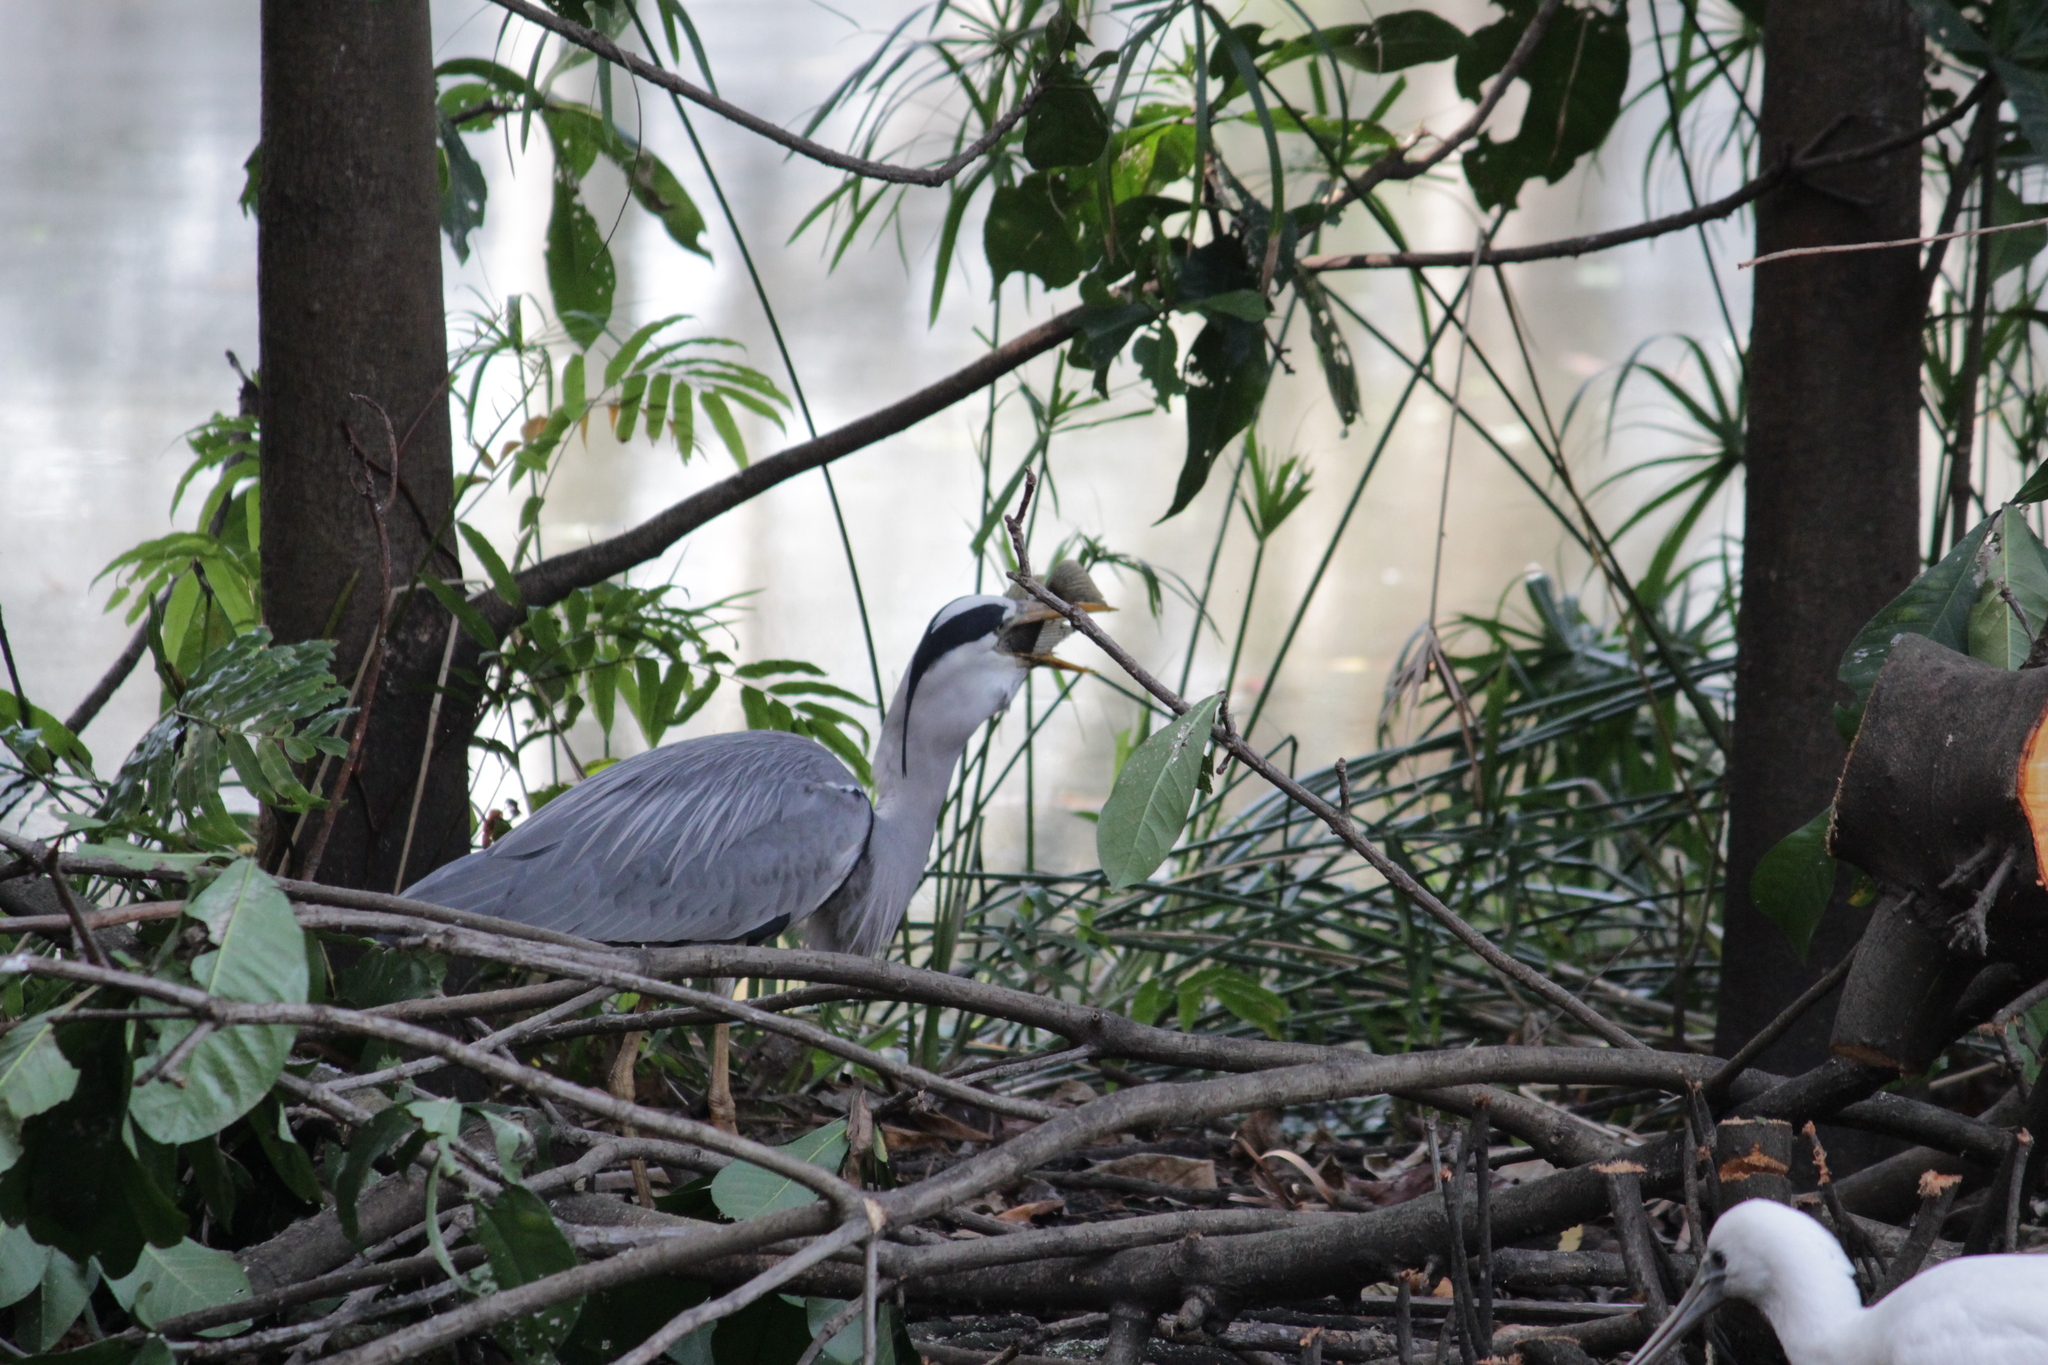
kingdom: Animalia
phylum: Chordata
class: Aves
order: Pelecaniformes
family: Ardeidae
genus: Ardea
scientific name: Ardea cinerea
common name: Grey heron
